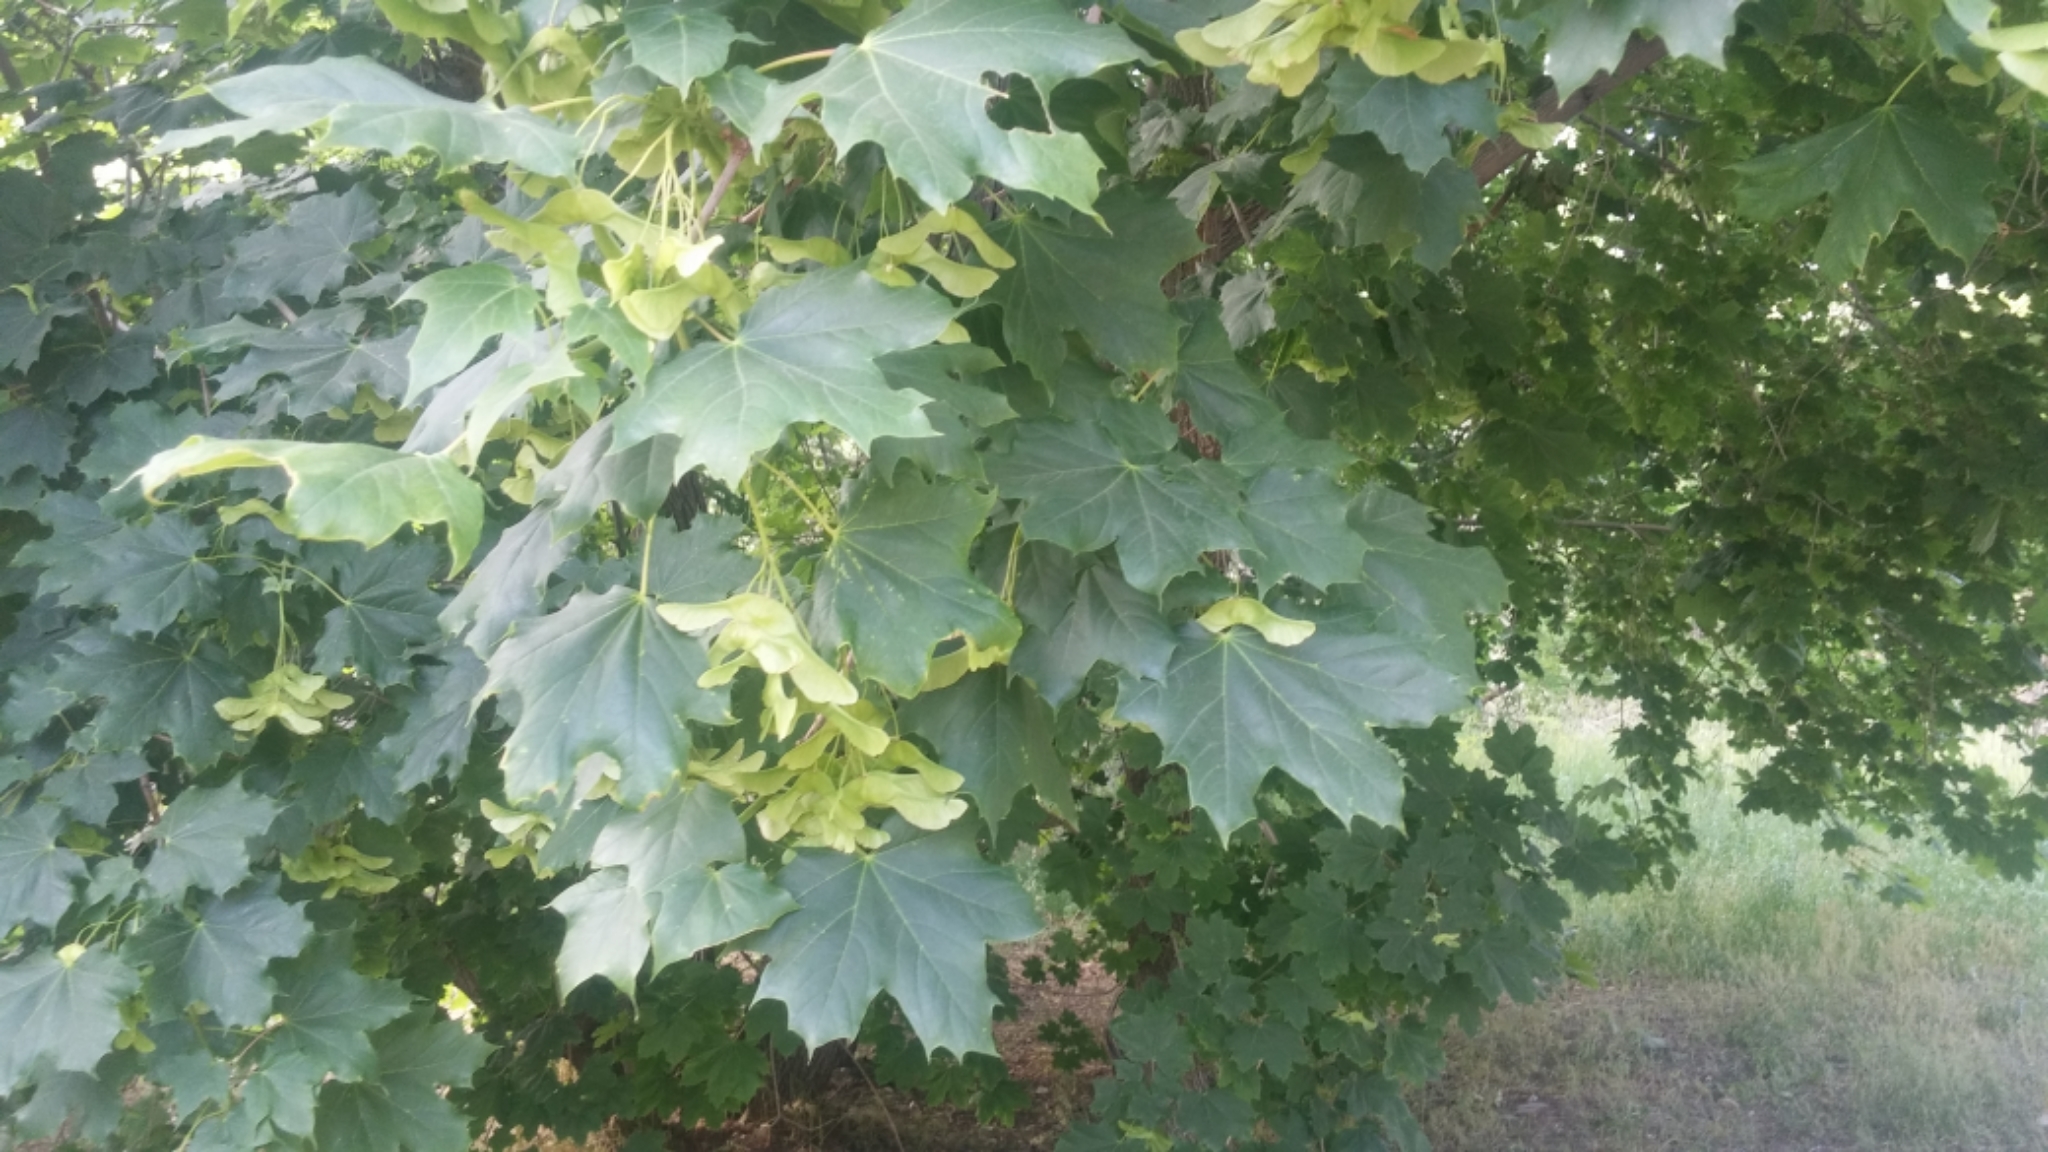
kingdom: Plantae
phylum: Tracheophyta
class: Magnoliopsida
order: Sapindales
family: Sapindaceae
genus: Acer
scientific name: Acer platanoides
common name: Norway maple
